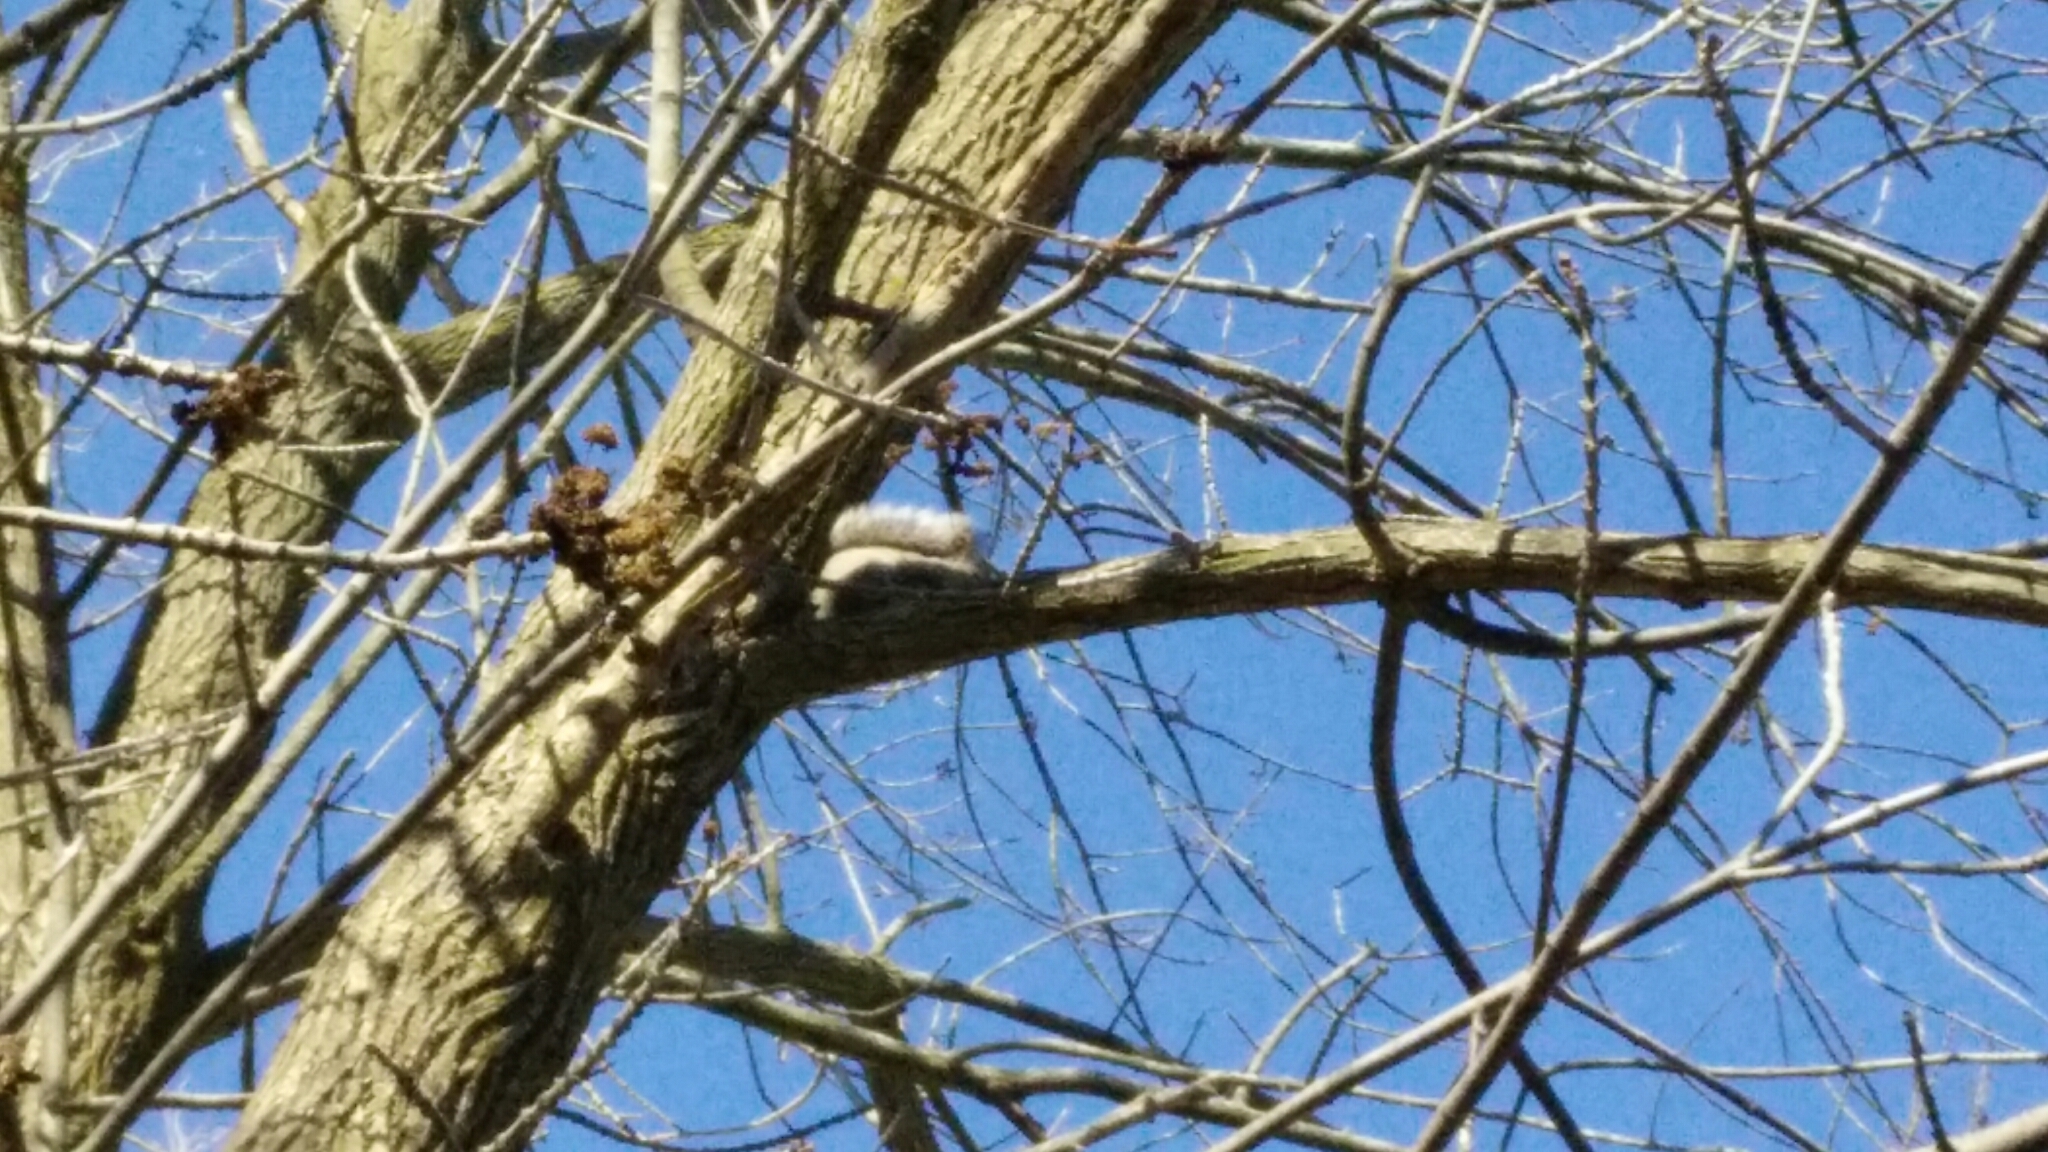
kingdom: Animalia
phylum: Chordata
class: Mammalia
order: Rodentia
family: Sciuridae
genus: Sciurus
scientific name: Sciurus carolinensis
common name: Eastern gray squirrel
